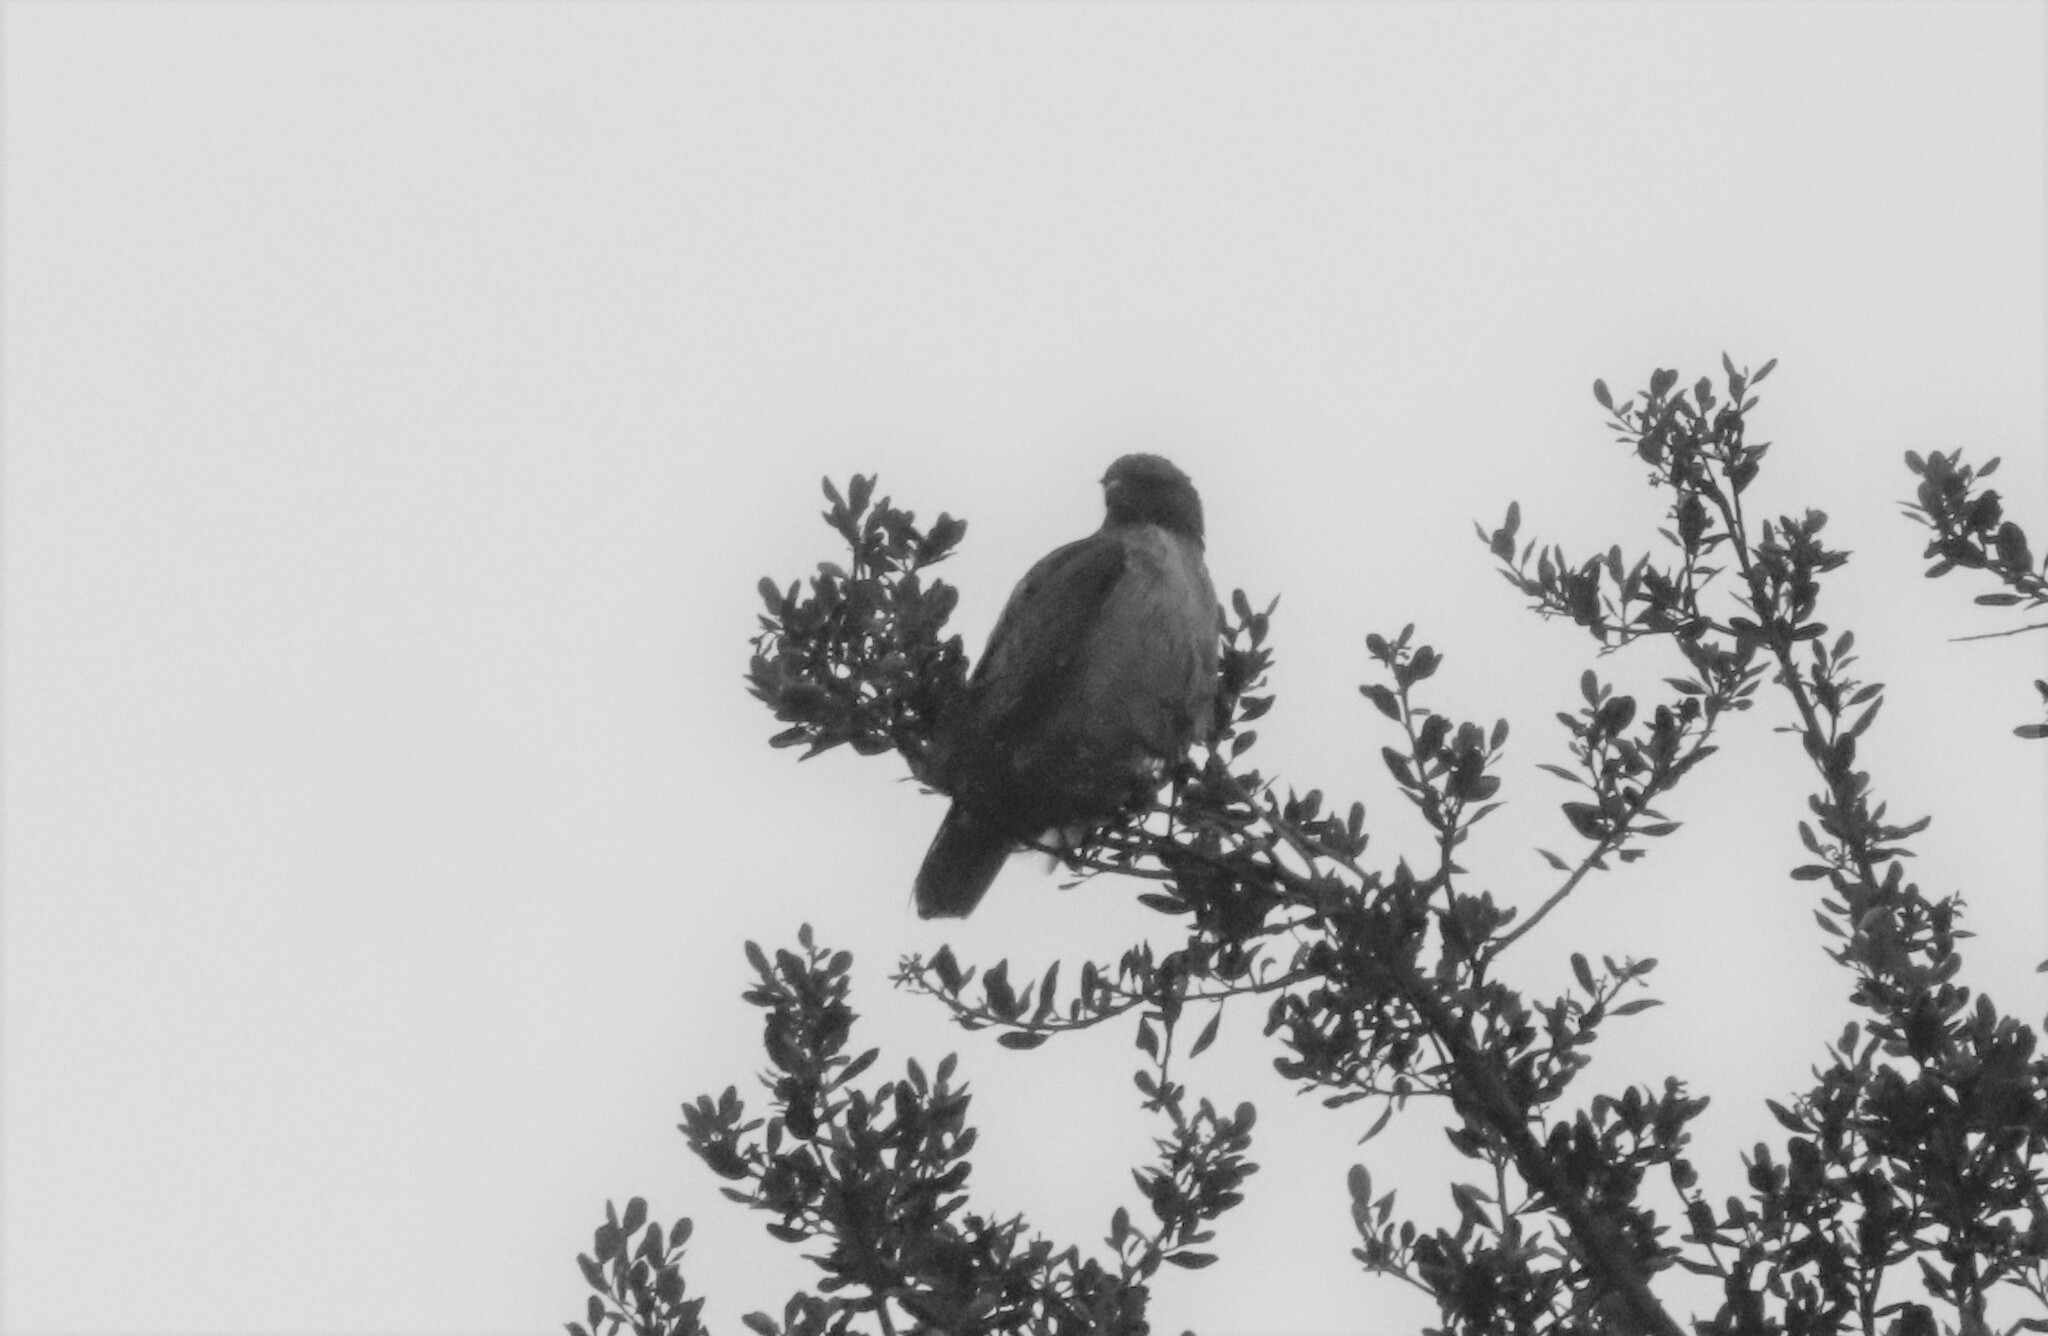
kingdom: Animalia
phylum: Chordata
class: Aves
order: Accipitriformes
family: Accipitridae
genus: Buteo
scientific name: Buteo jamaicensis
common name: Red-tailed hawk
